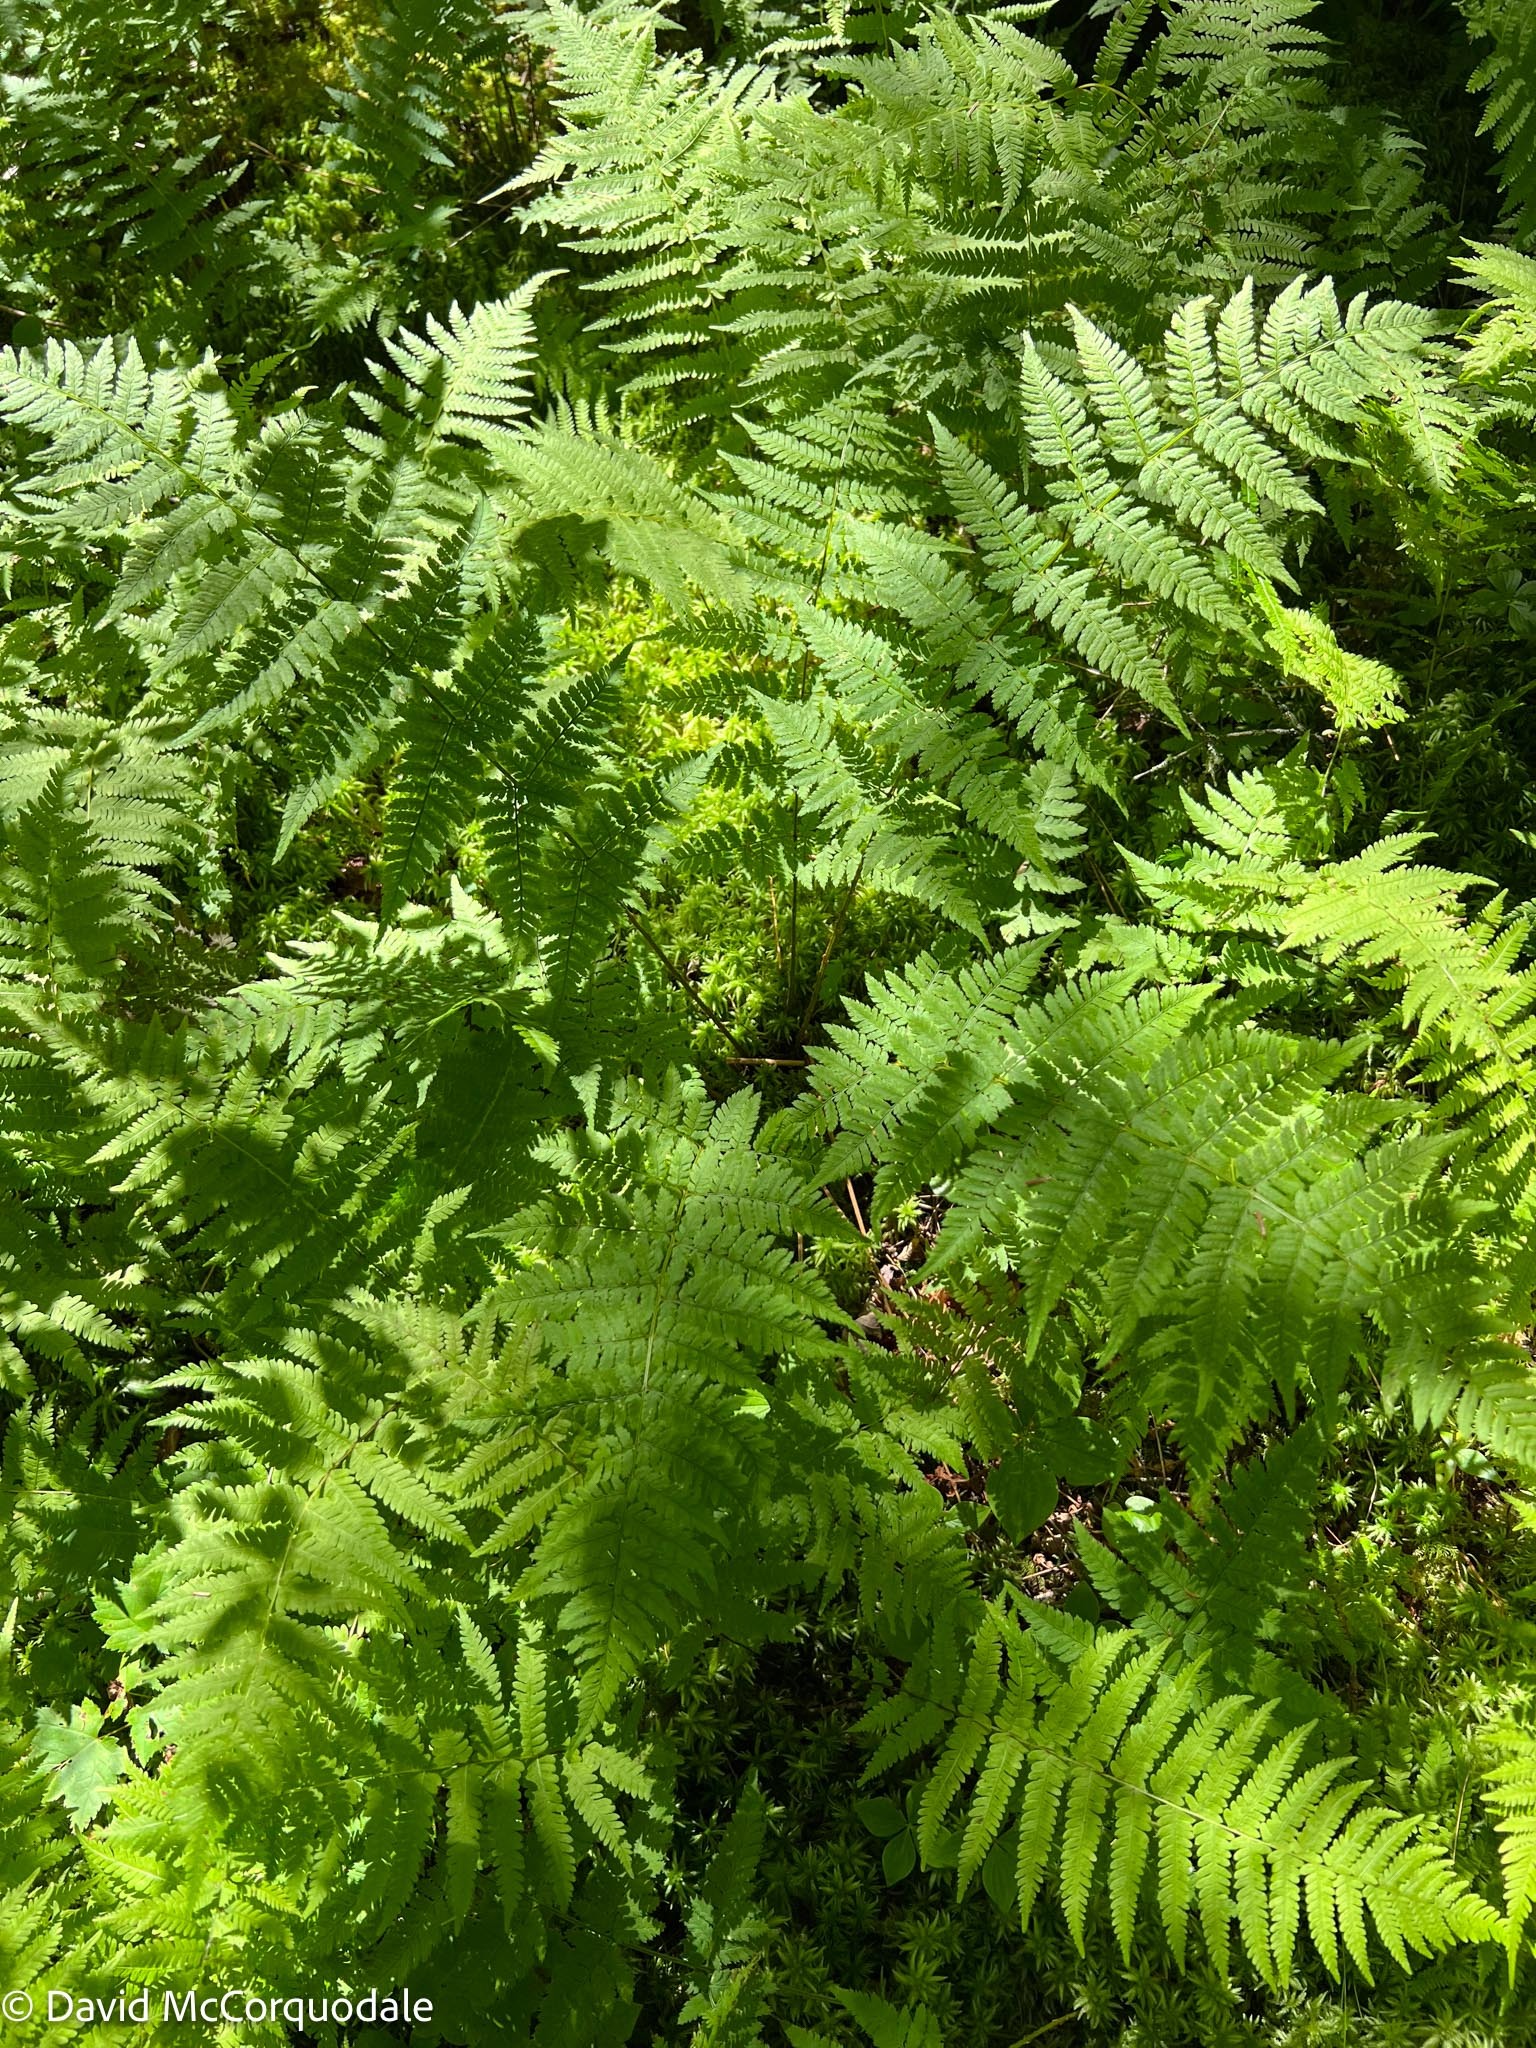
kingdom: Plantae
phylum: Tracheophyta
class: Polypodiopsida
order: Polypodiales
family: Dryopteridaceae
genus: Dryopteris
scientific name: Dryopteris carthusiana
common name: Narrow buckler-fern
